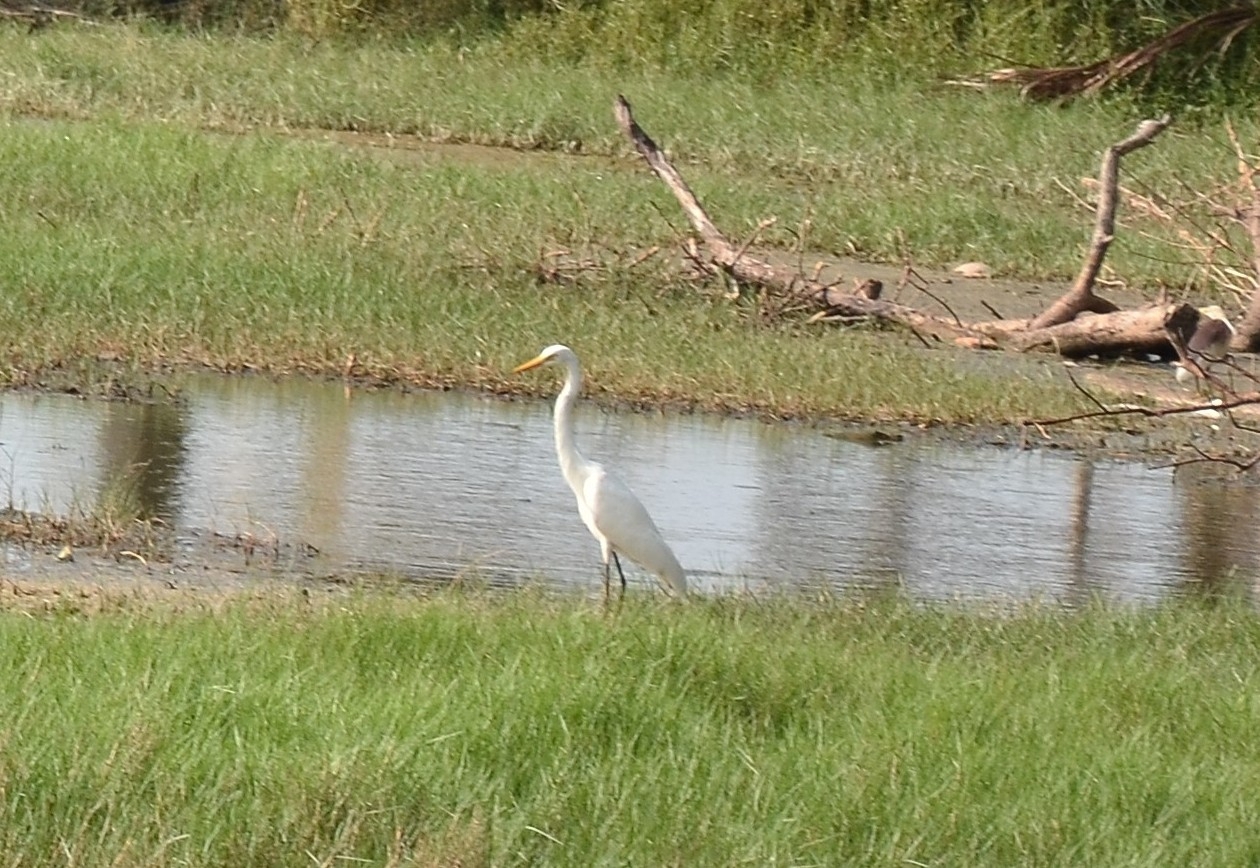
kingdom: Animalia
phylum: Chordata
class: Aves
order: Pelecaniformes
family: Ardeidae
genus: Egretta
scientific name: Egretta intermedia
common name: Intermediate egret
